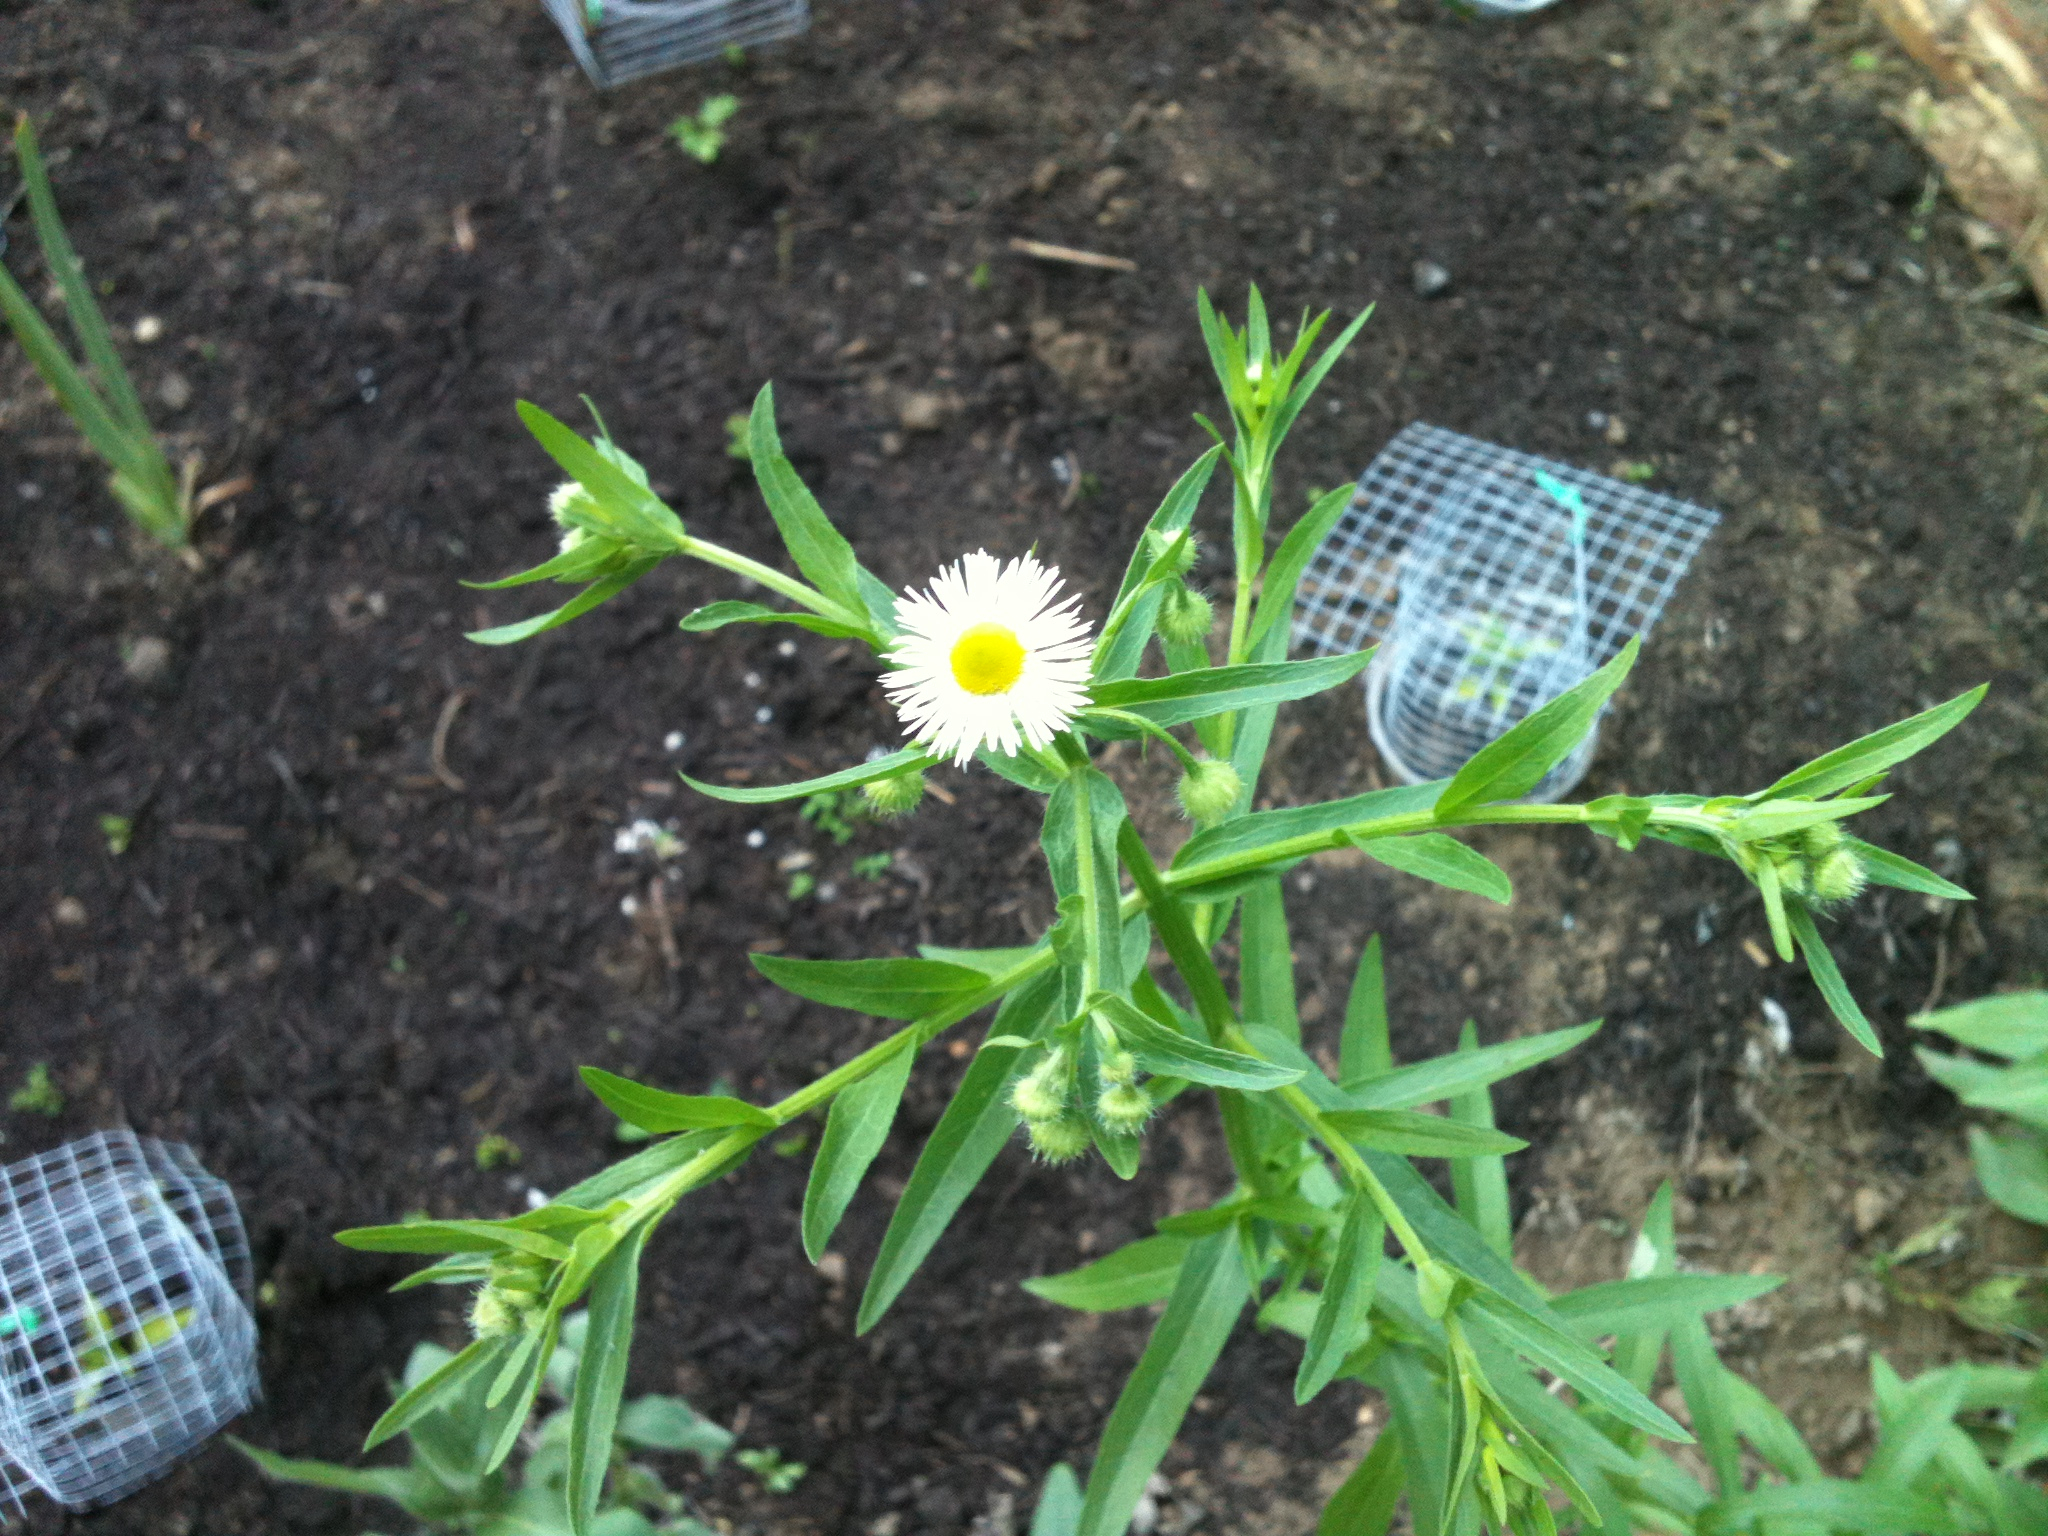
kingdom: Plantae
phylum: Tracheophyta
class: Magnoliopsida
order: Asterales
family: Asteraceae
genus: Erigeron
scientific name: Erigeron annuus
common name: Tall fleabane
